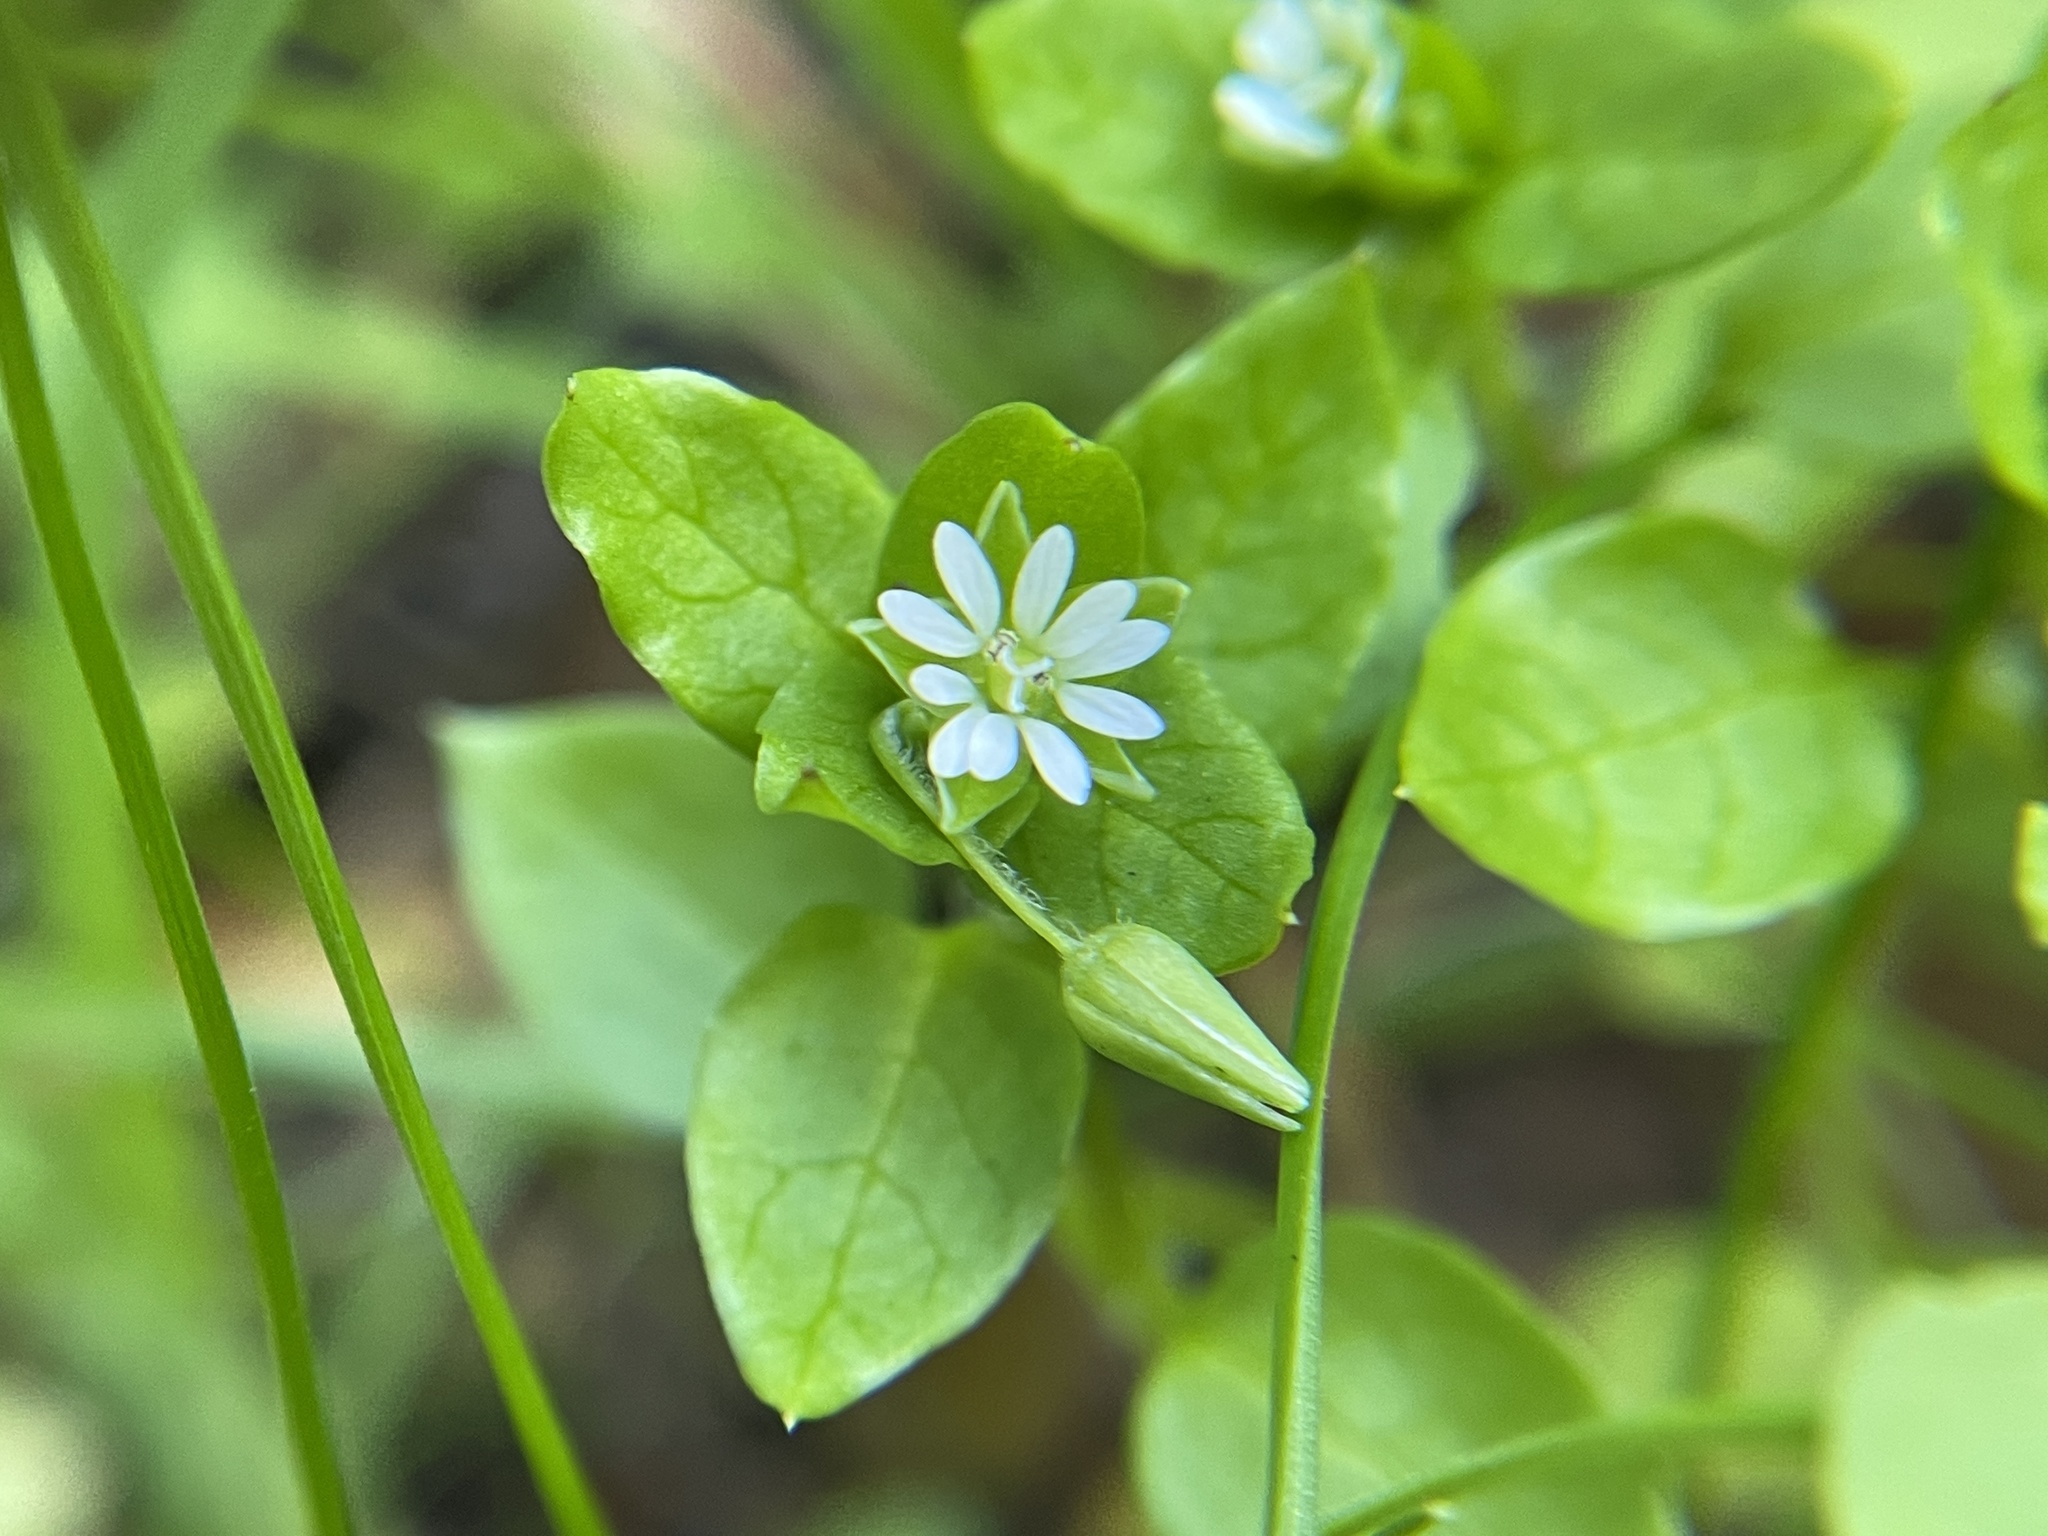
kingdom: Plantae
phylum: Tracheophyta
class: Magnoliopsida
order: Caryophyllales
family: Caryophyllaceae
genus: Stellaria
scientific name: Stellaria media
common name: Common chickweed
